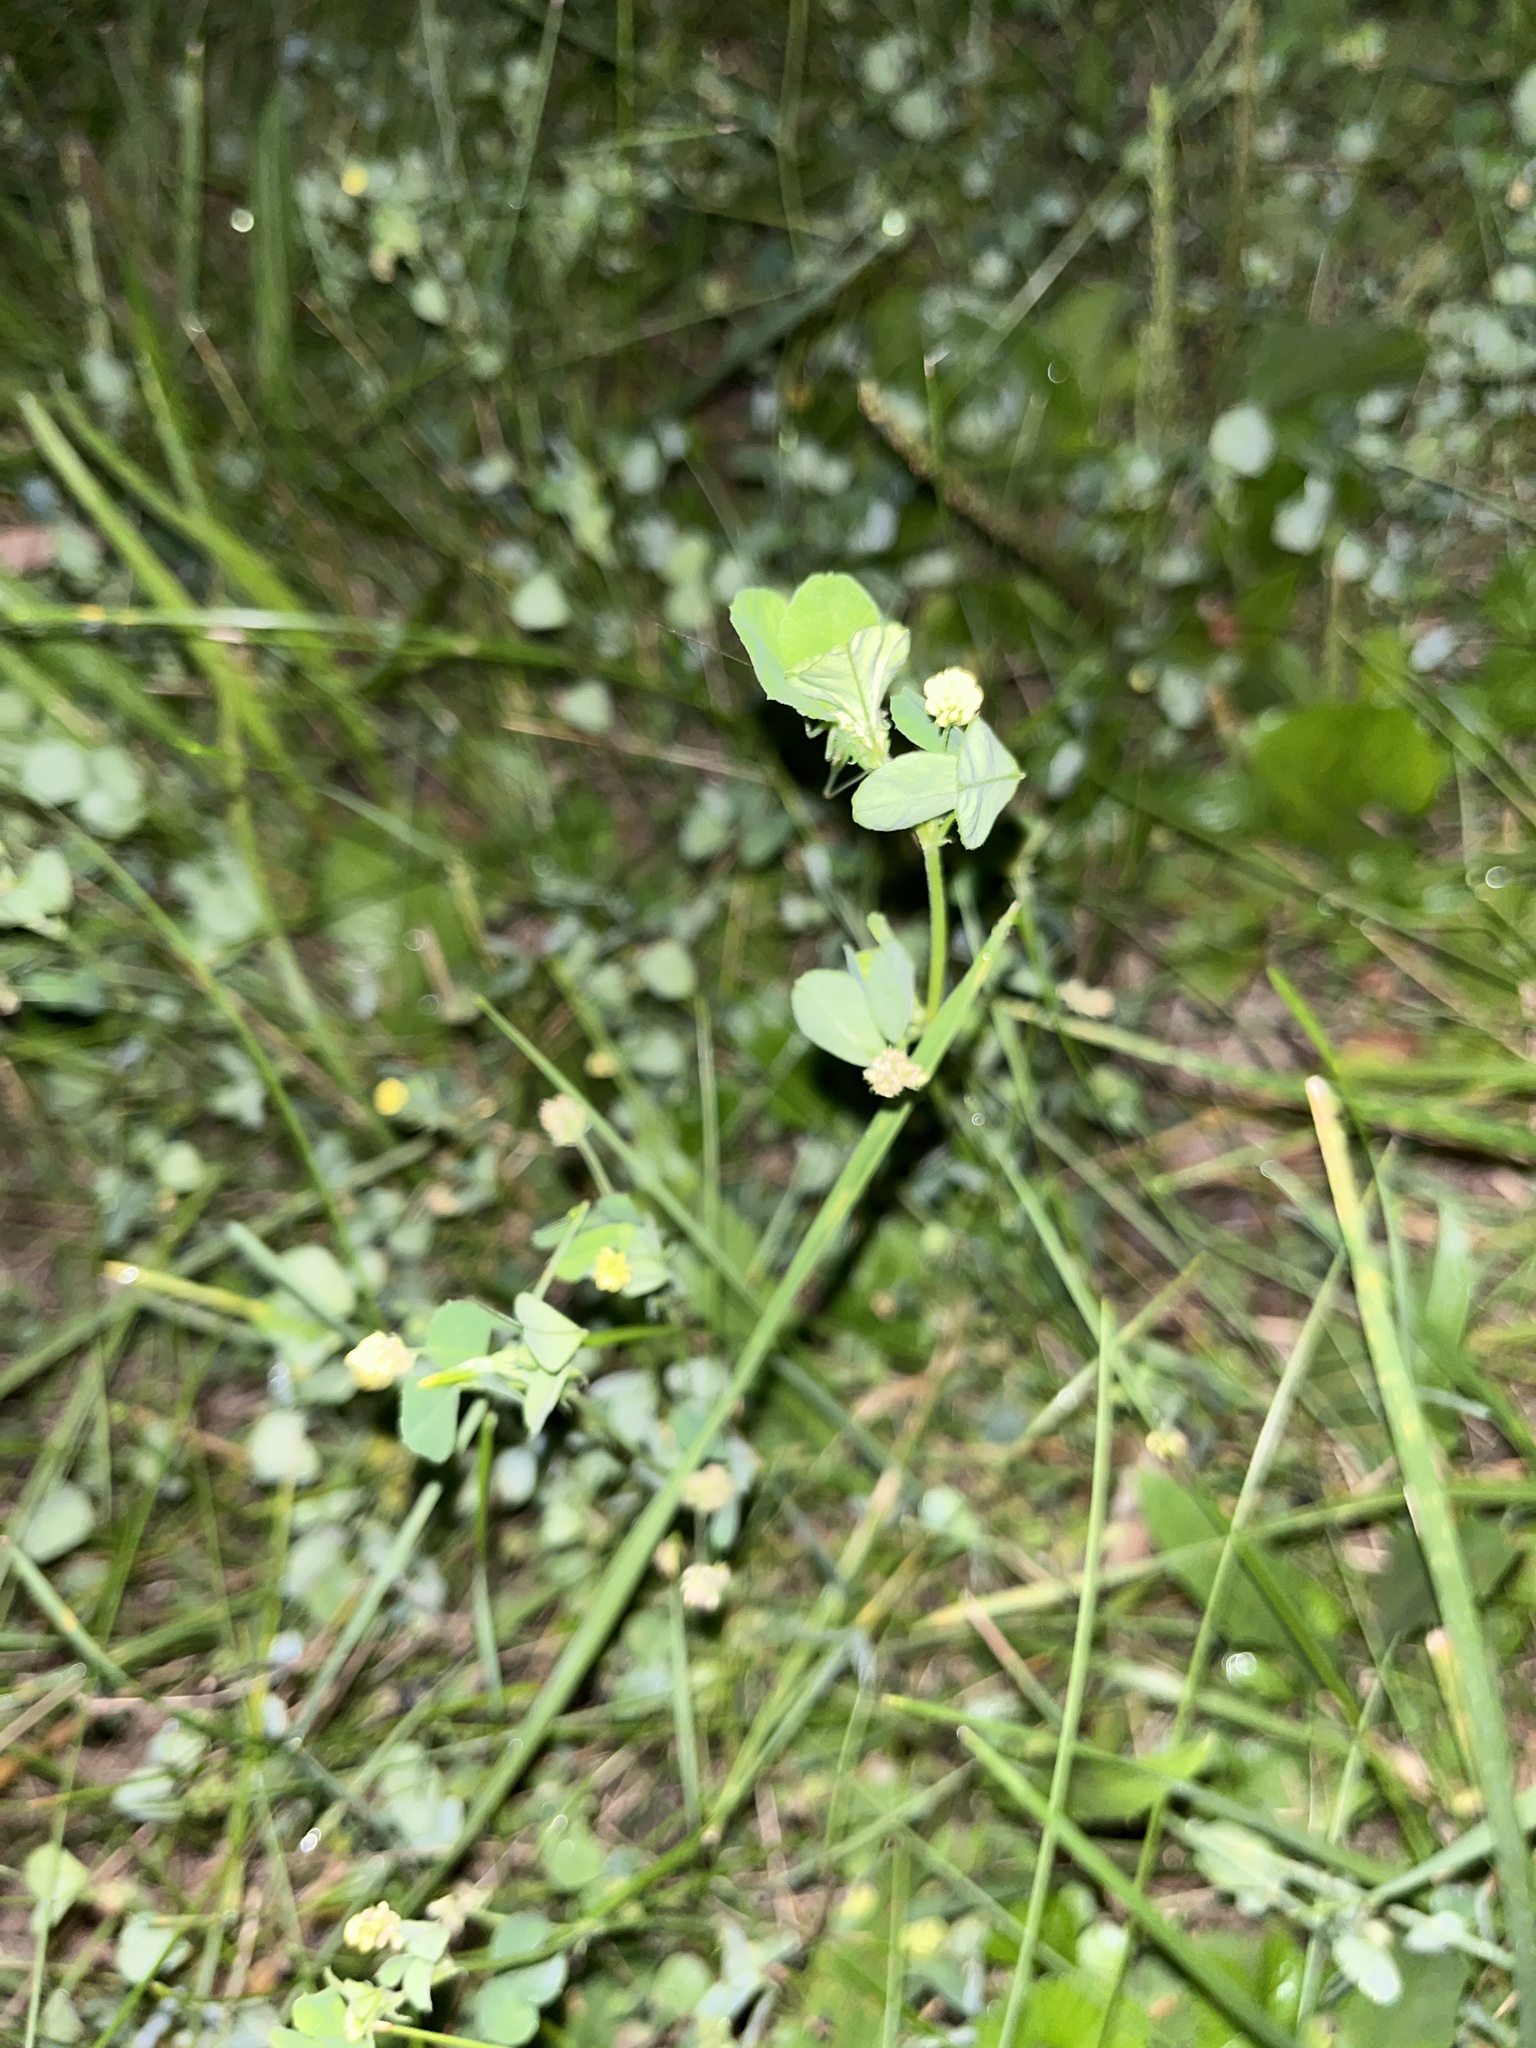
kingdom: Plantae
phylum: Tracheophyta
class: Magnoliopsida
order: Fabales
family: Fabaceae
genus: Medicago
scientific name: Medicago lupulina
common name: Black medick
